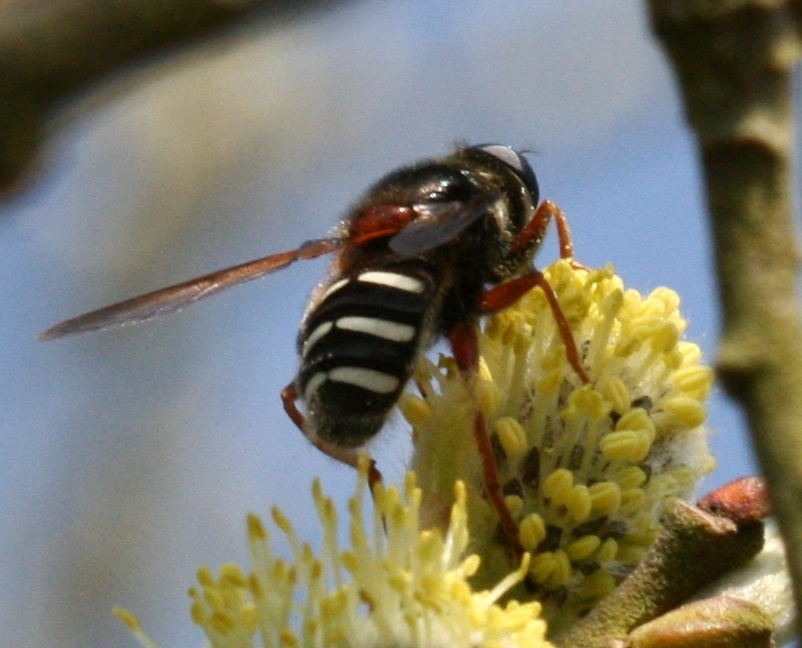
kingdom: Animalia
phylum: Arthropoda
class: Insecta
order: Diptera
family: Syrphidae
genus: Sericomyia
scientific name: Sericomyia lappona
